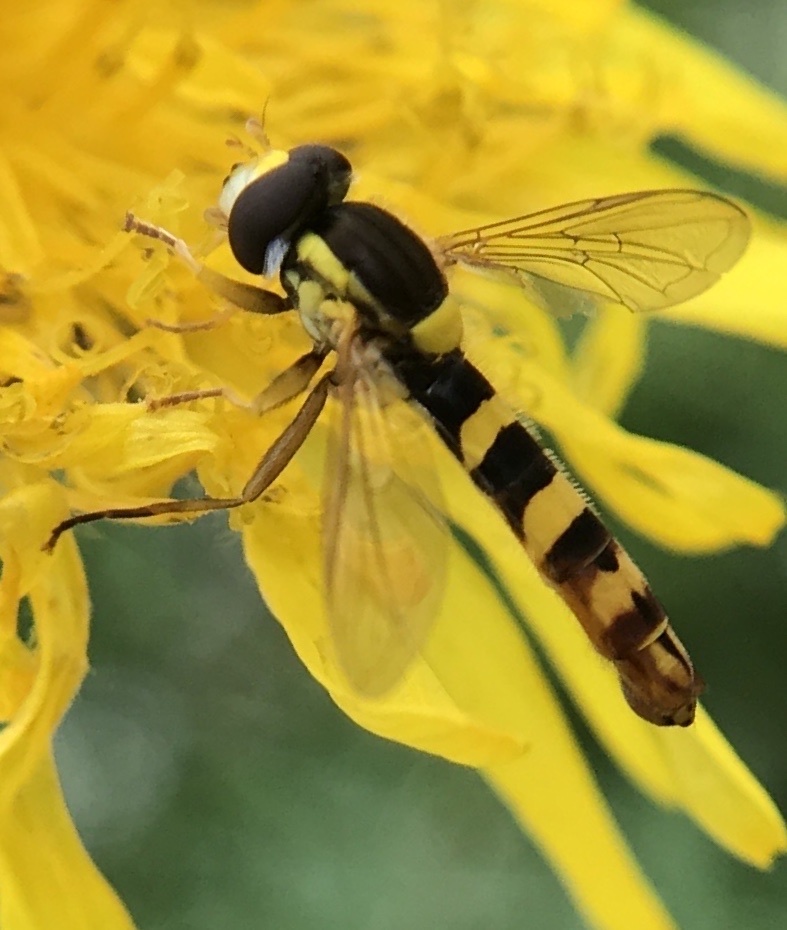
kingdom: Animalia
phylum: Arthropoda
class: Insecta
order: Diptera
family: Syrphidae
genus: Sphaerophoria
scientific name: Sphaerophoria scripta
